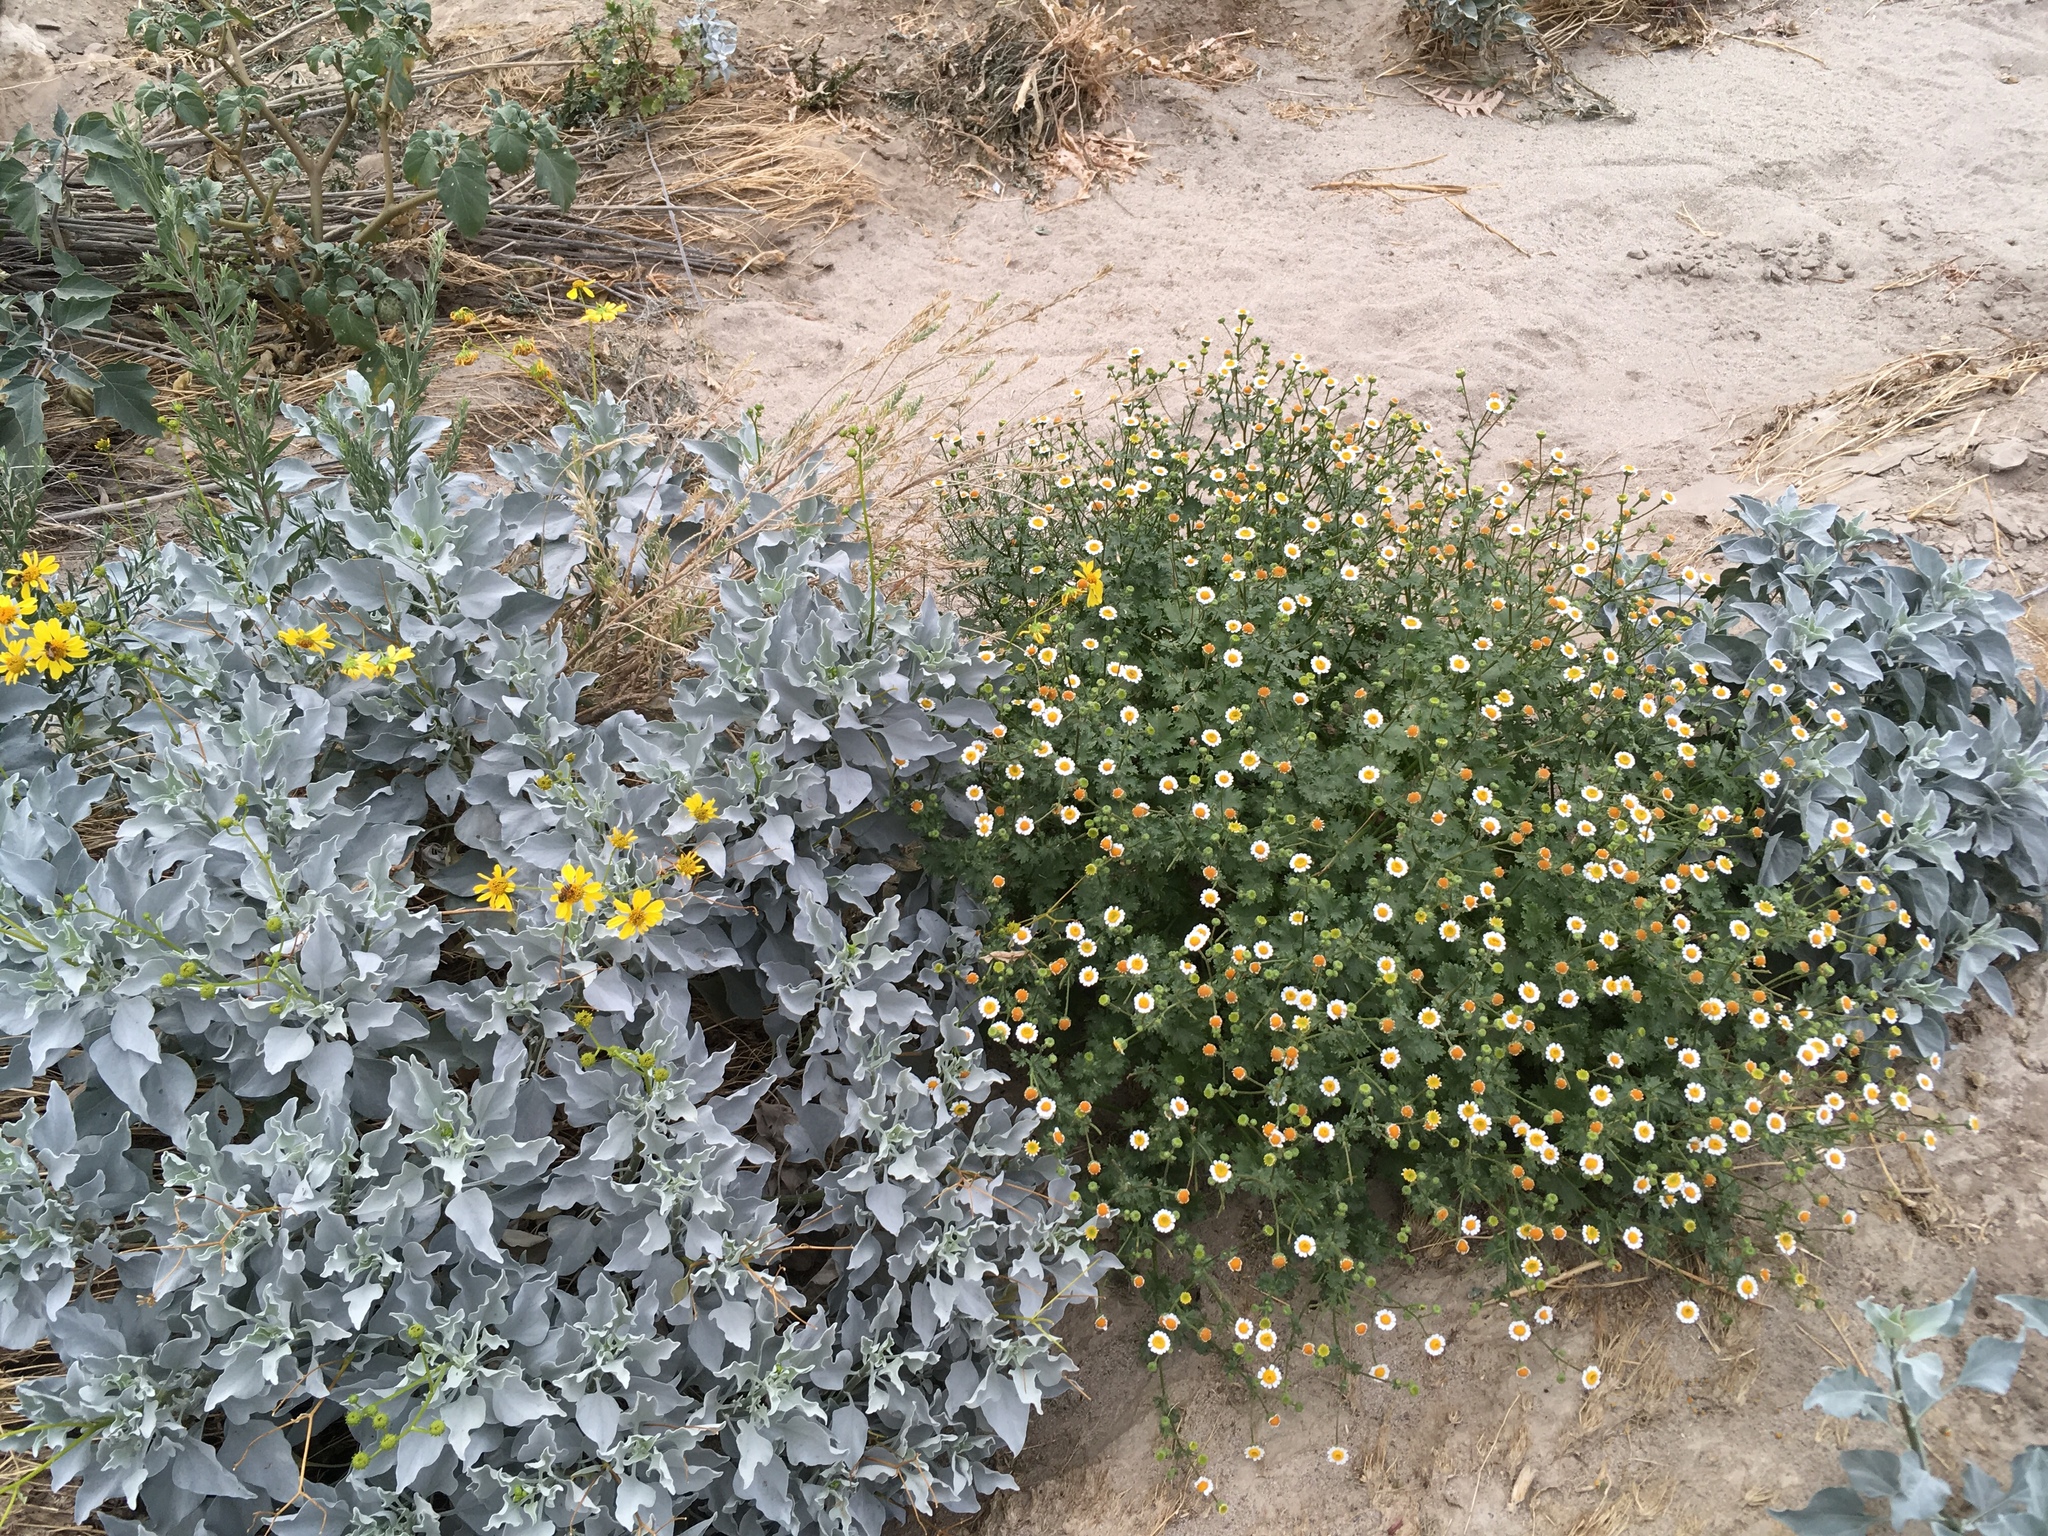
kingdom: Plantae
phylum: Tracheophyta
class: Magnoliopsida
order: Asterales
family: Asteraceae
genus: Laphamia
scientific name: Laphamia emoryi
